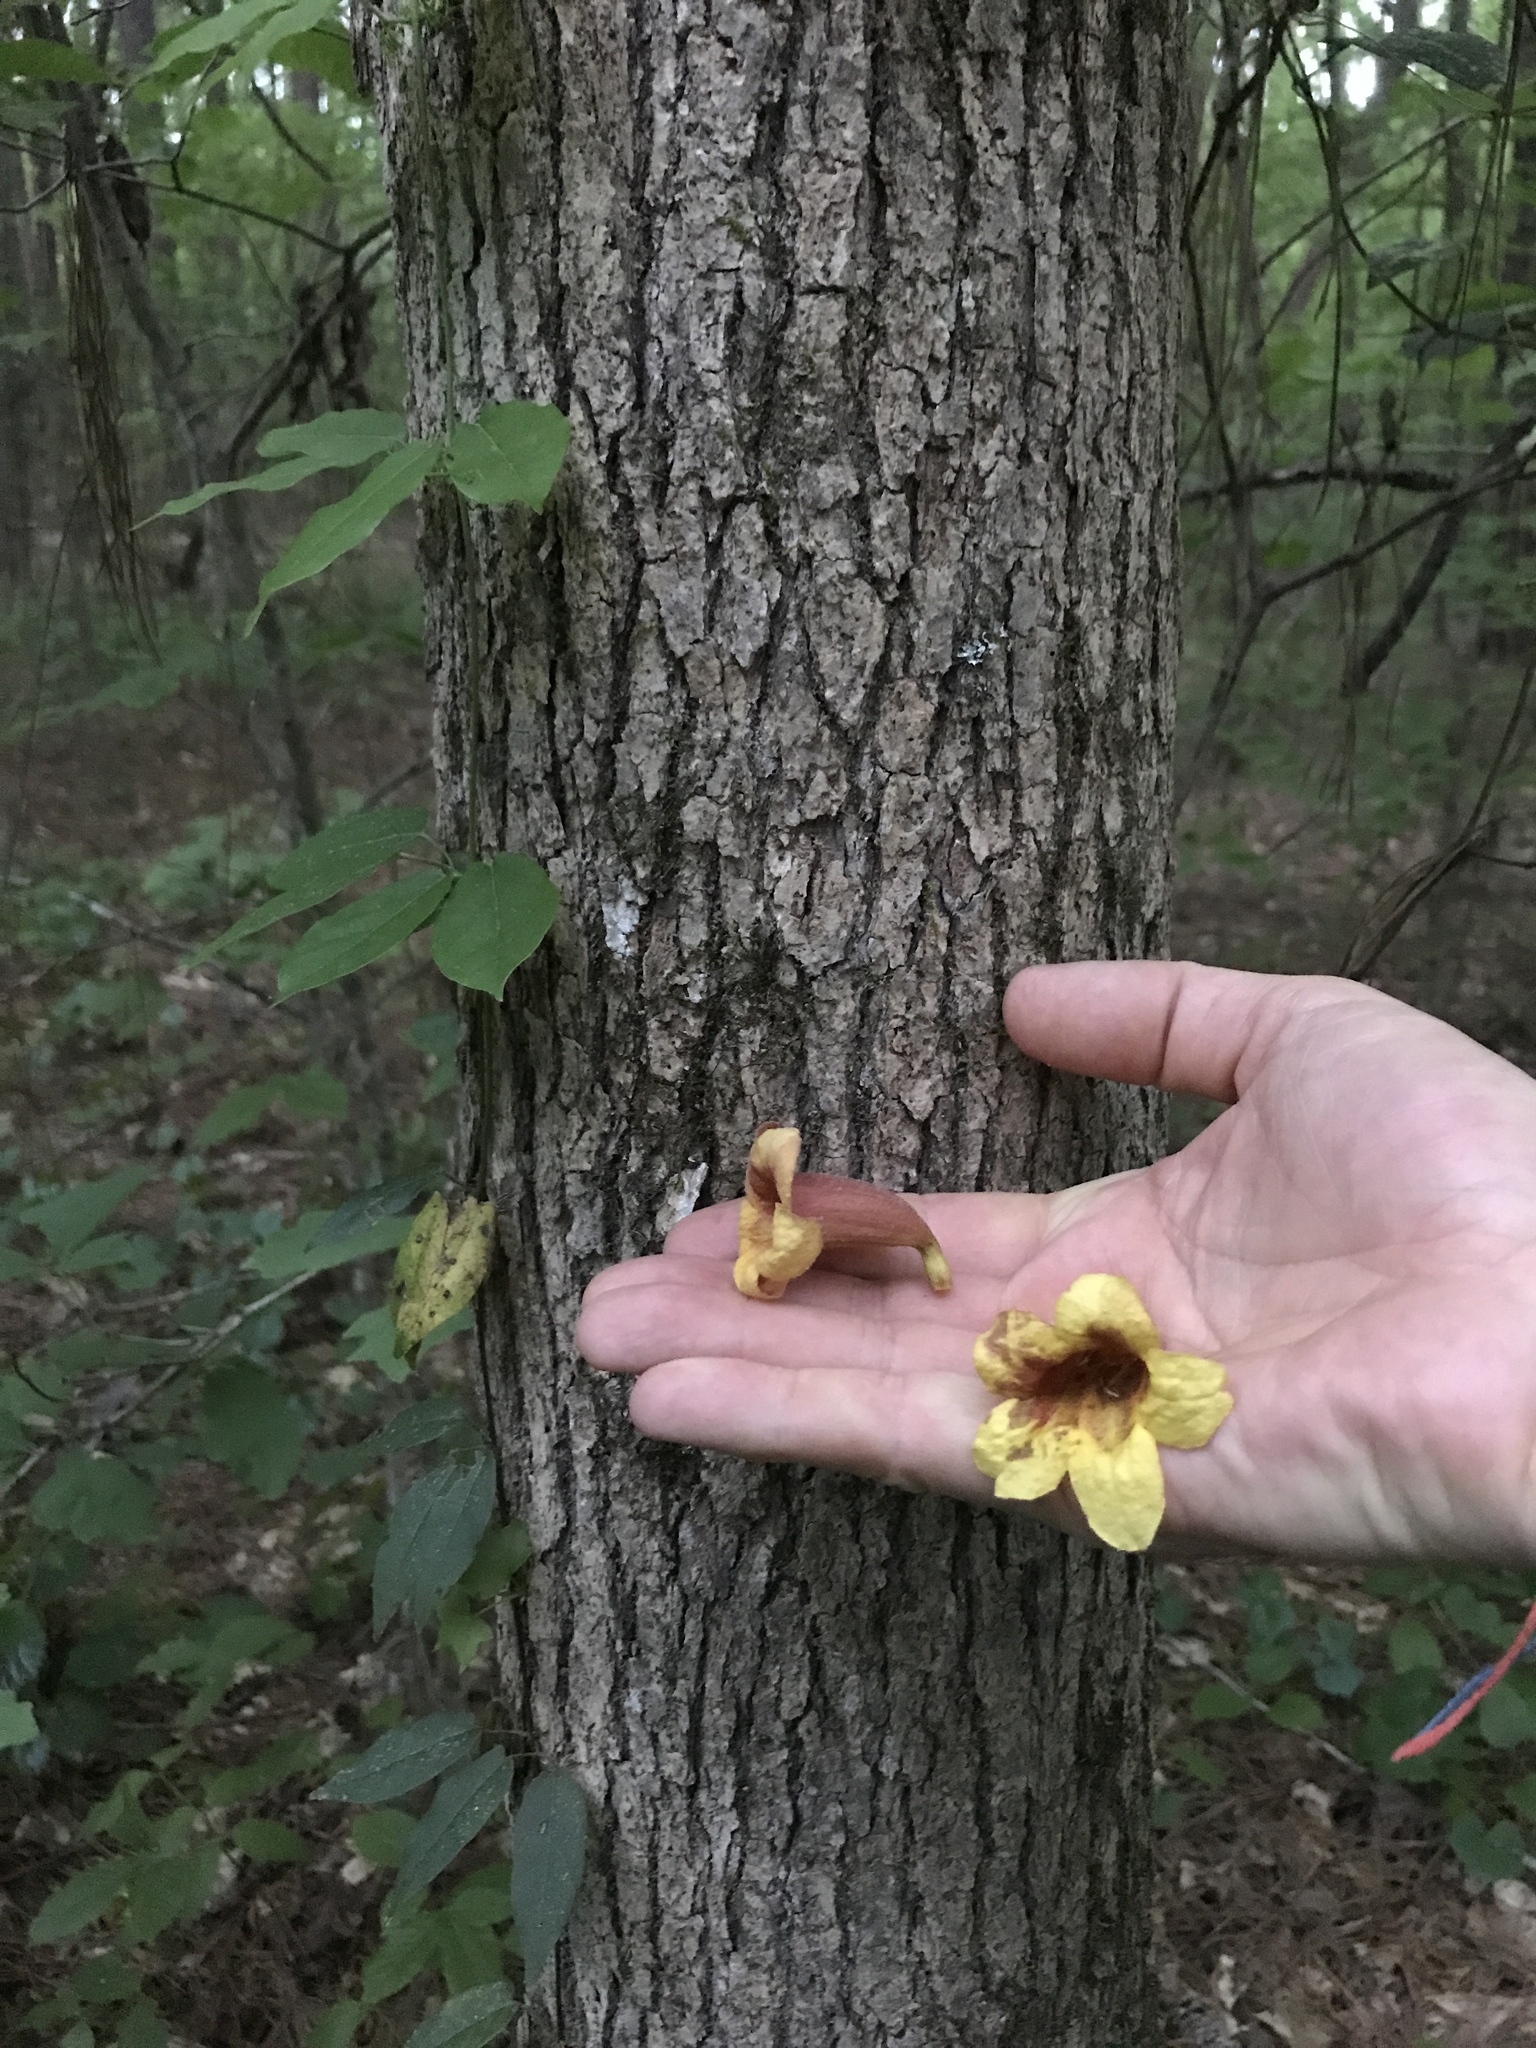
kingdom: Plantae
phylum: Tracheophyta
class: Magnoliopsida
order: Lamiales
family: Bignoniaceae
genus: Bignonia
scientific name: Bignonia capreolata
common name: Crossvine
